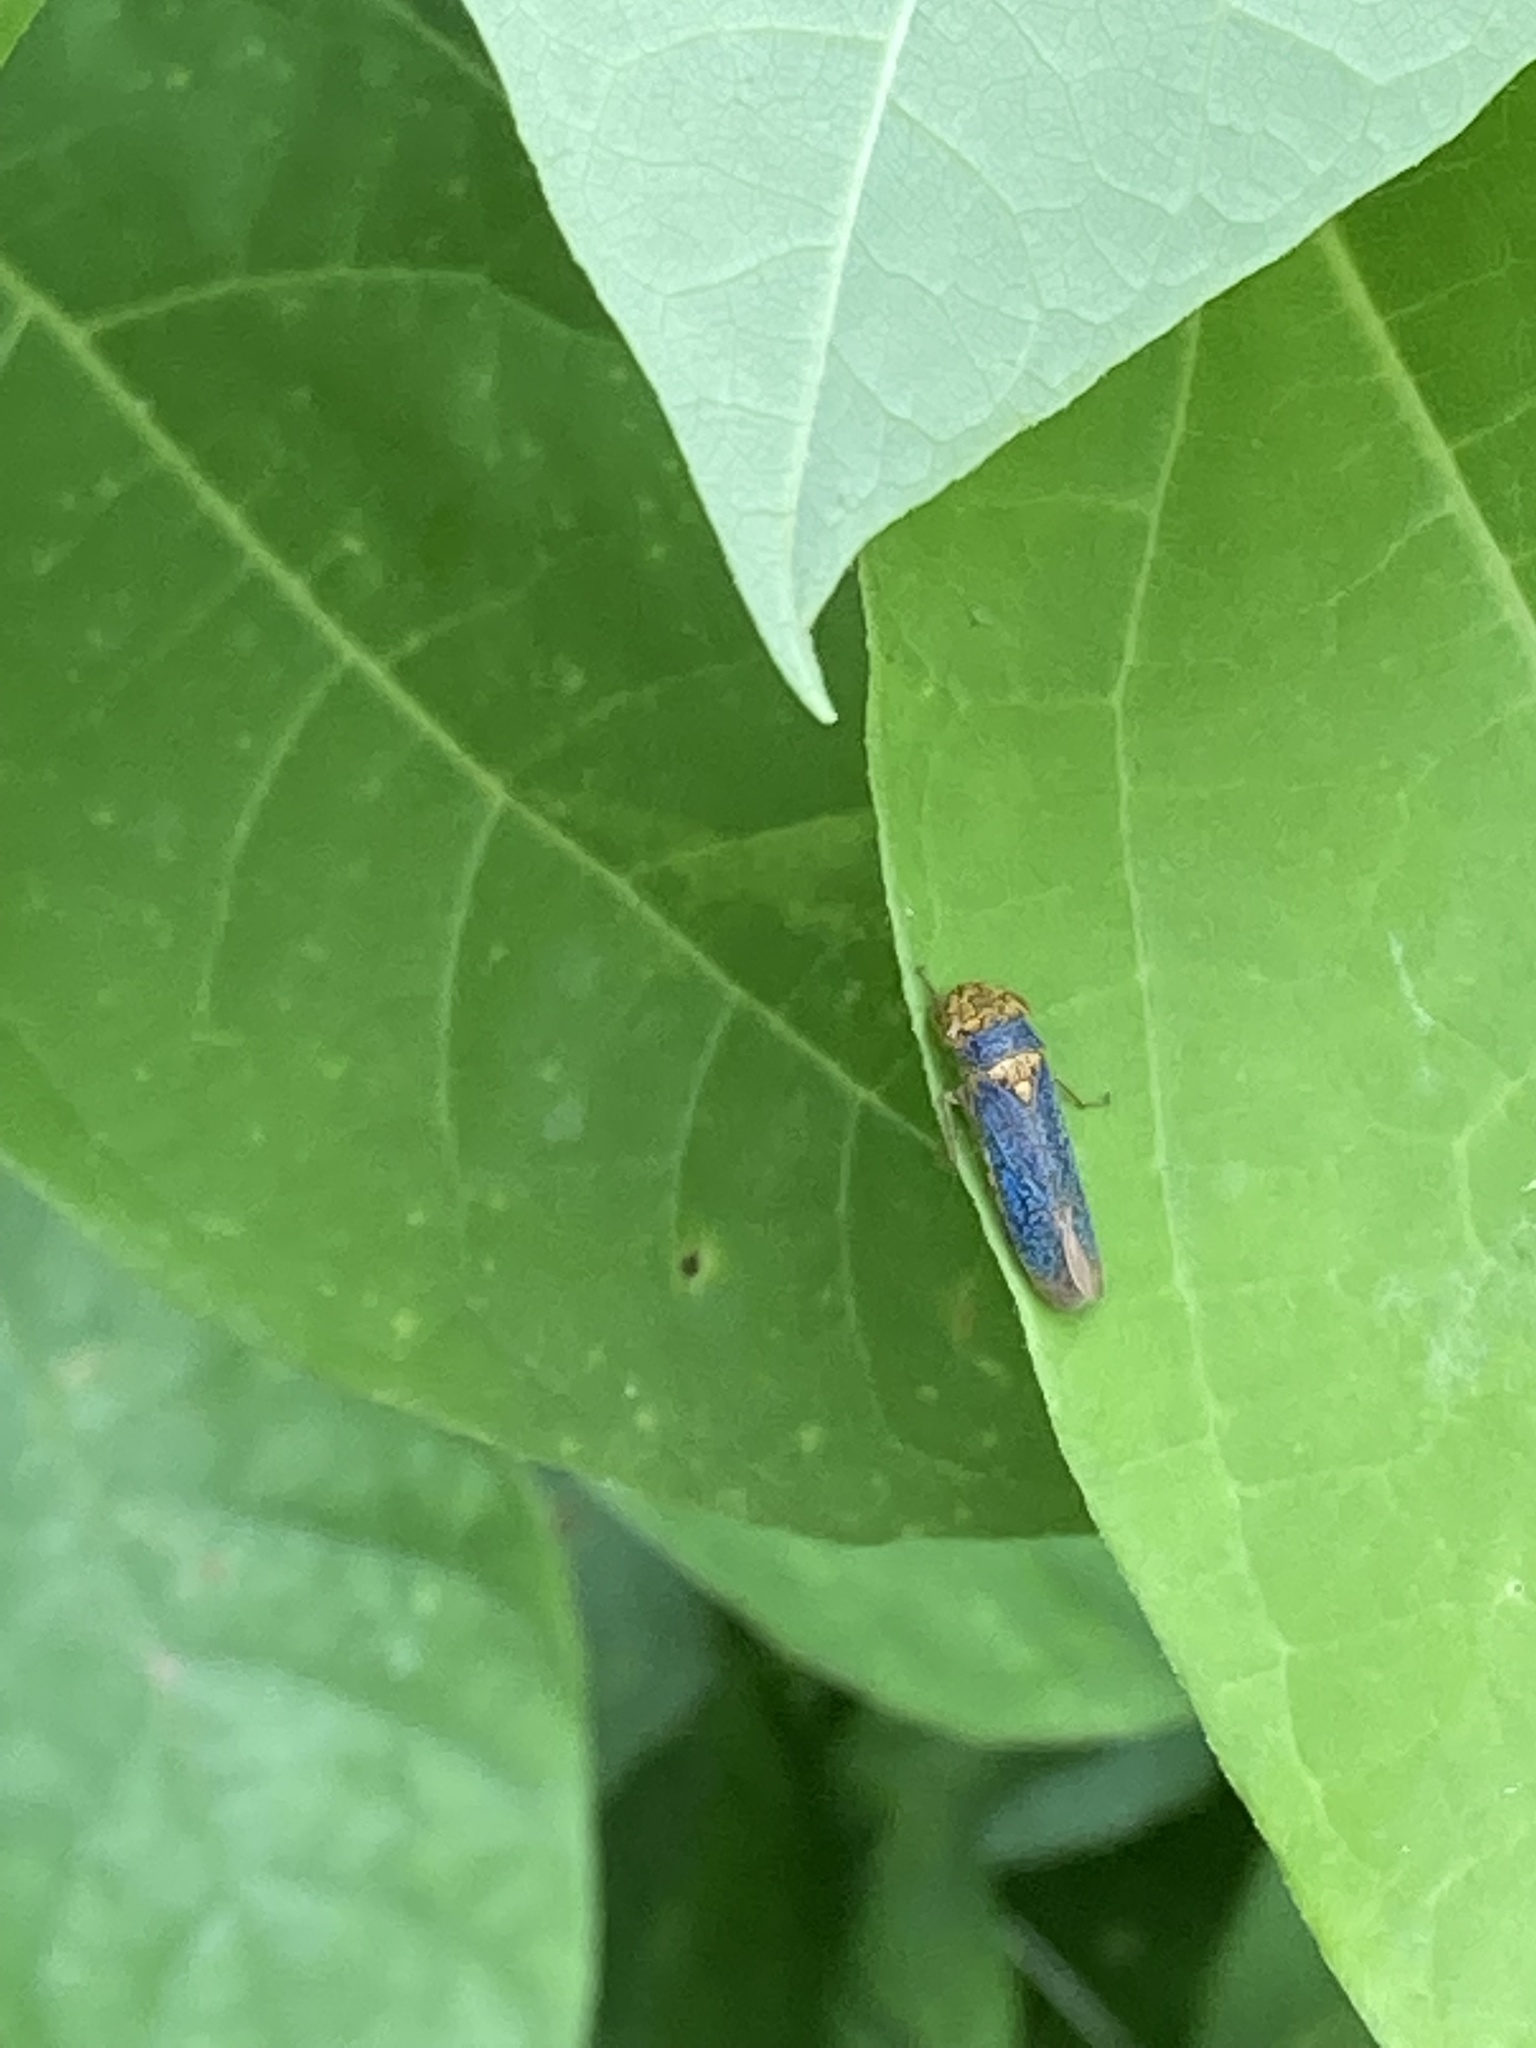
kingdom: Animalia
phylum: Arthropoda
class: Insecta
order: Hemiptera
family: Cicadellidae
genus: Oncometopia
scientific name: Oncometopia orbona
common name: Broad-headed sharpshooter
